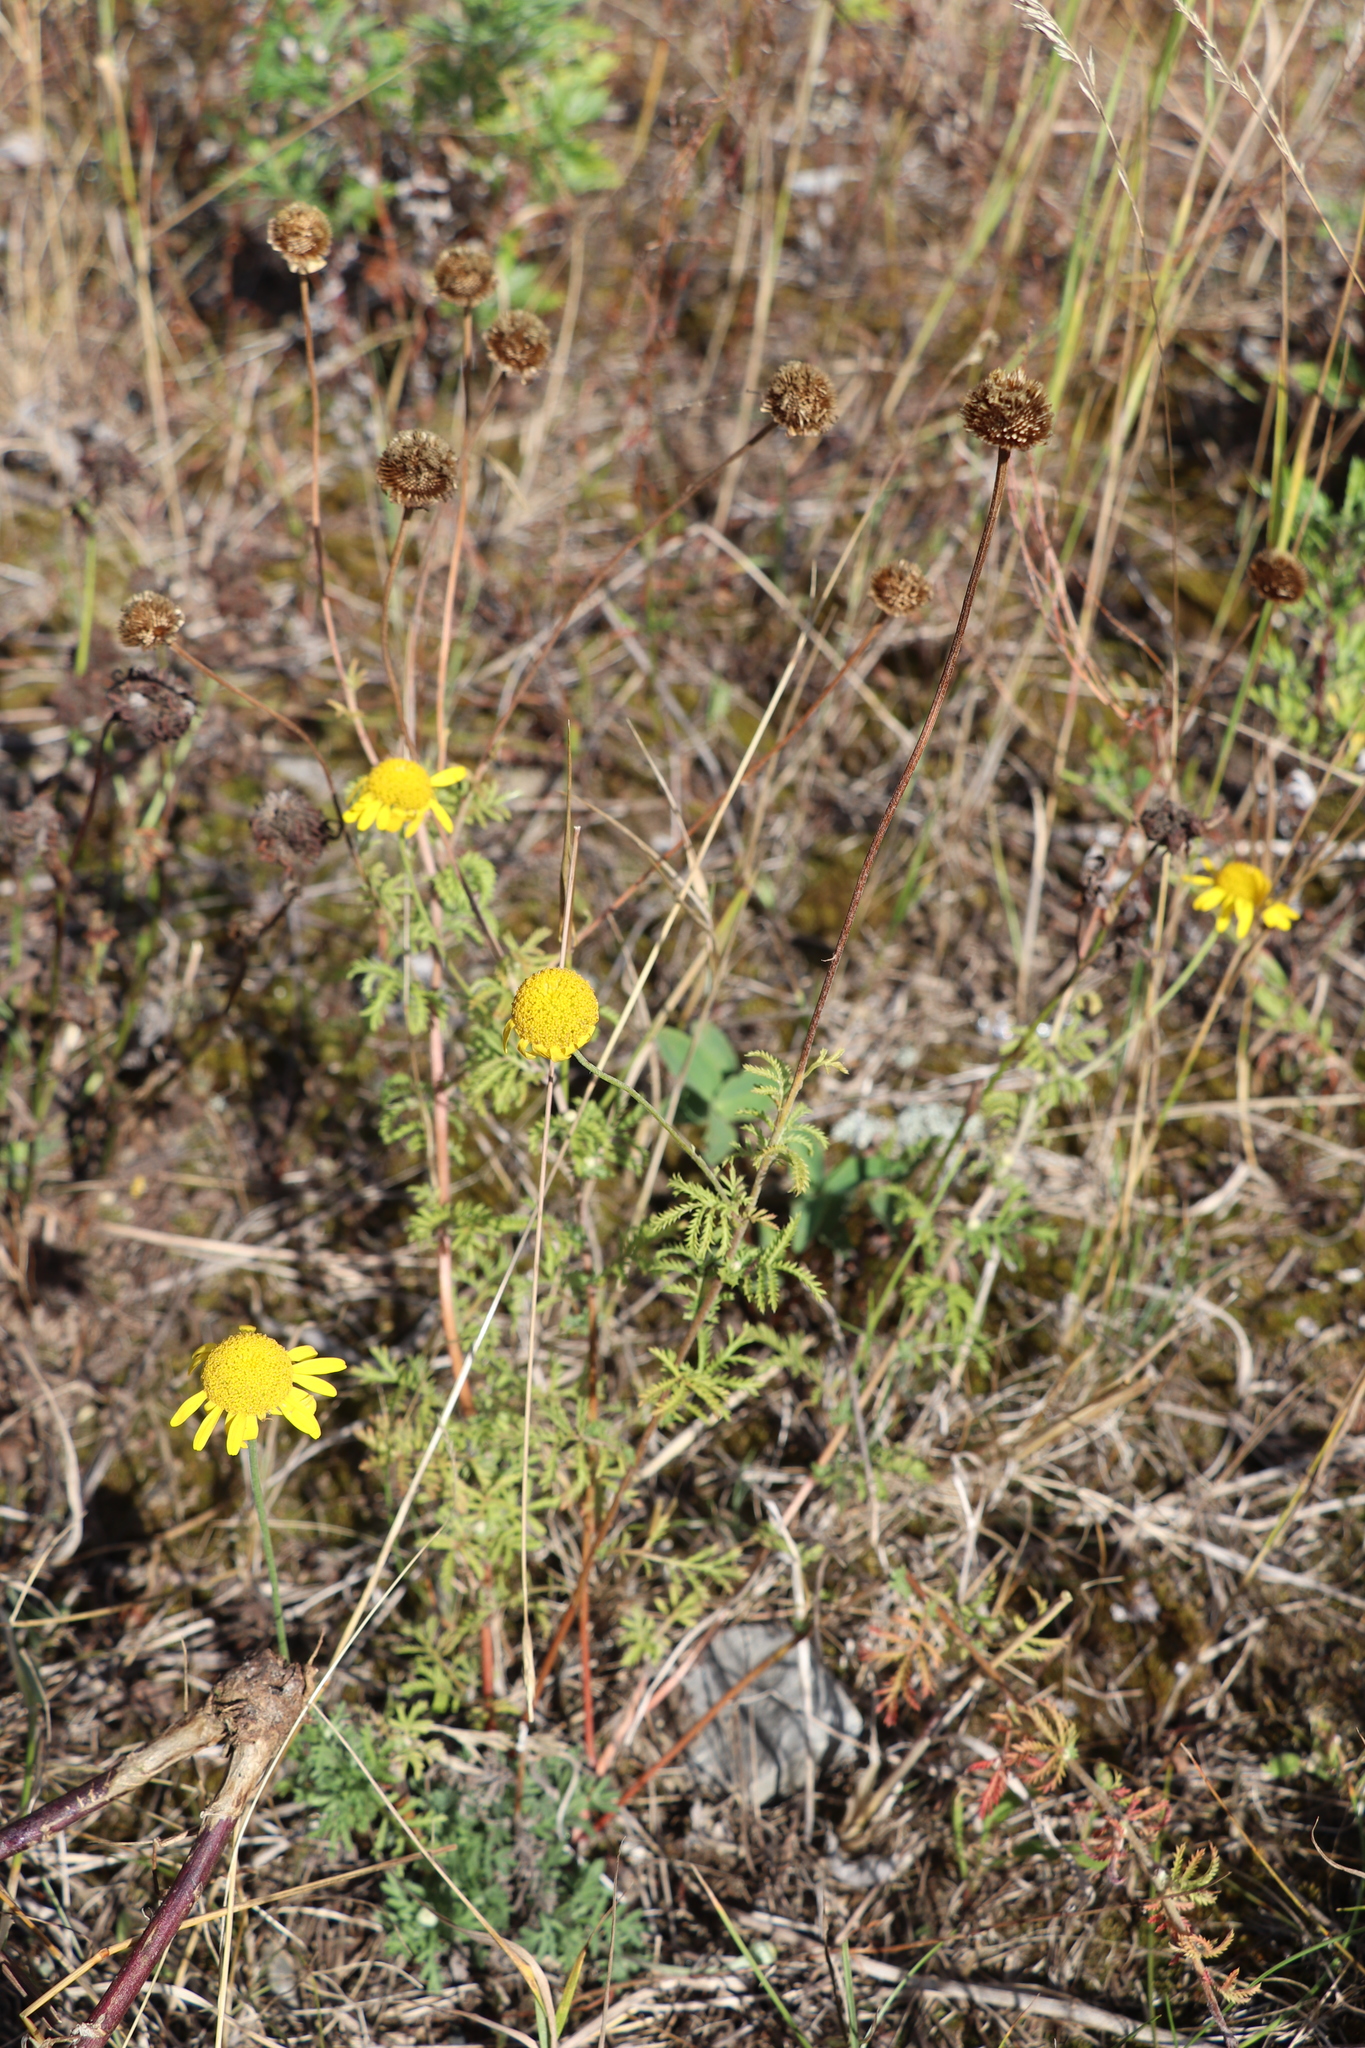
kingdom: Plantae
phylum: Tracheophyta
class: Magnoliopsida
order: Asterales
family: Asteraceae
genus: Cota
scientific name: Cota tinctoria
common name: Golden chamomile
